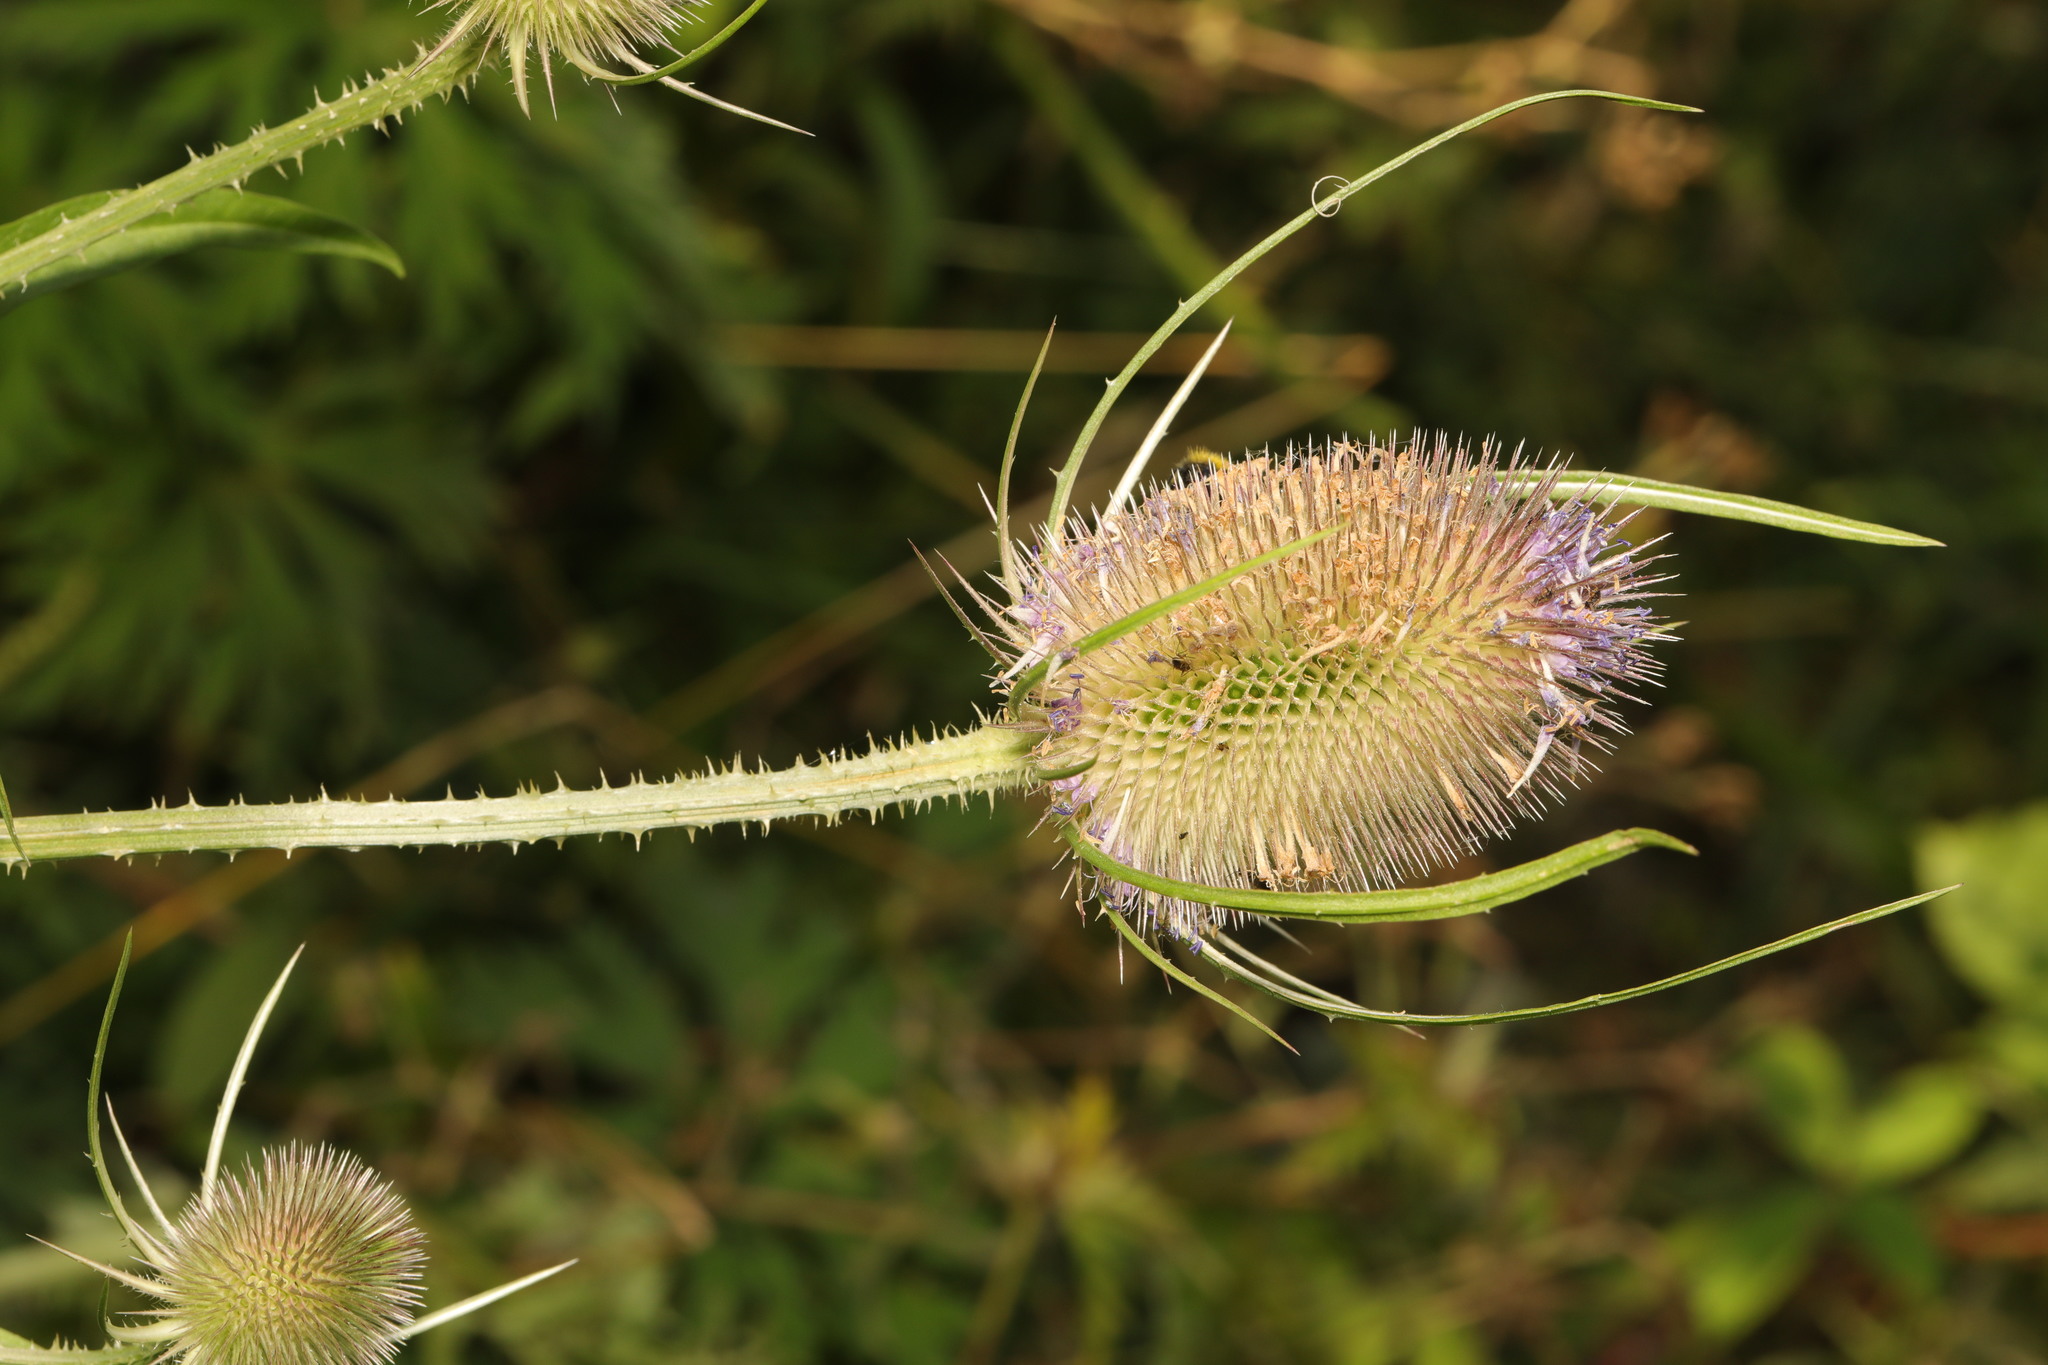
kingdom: Plantae
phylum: Tracheophyta
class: Magnoliopsida
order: Dipsacales
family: Caprifoliaceae
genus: Dipsacus
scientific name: Dipsacus fullonum
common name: Teasel
